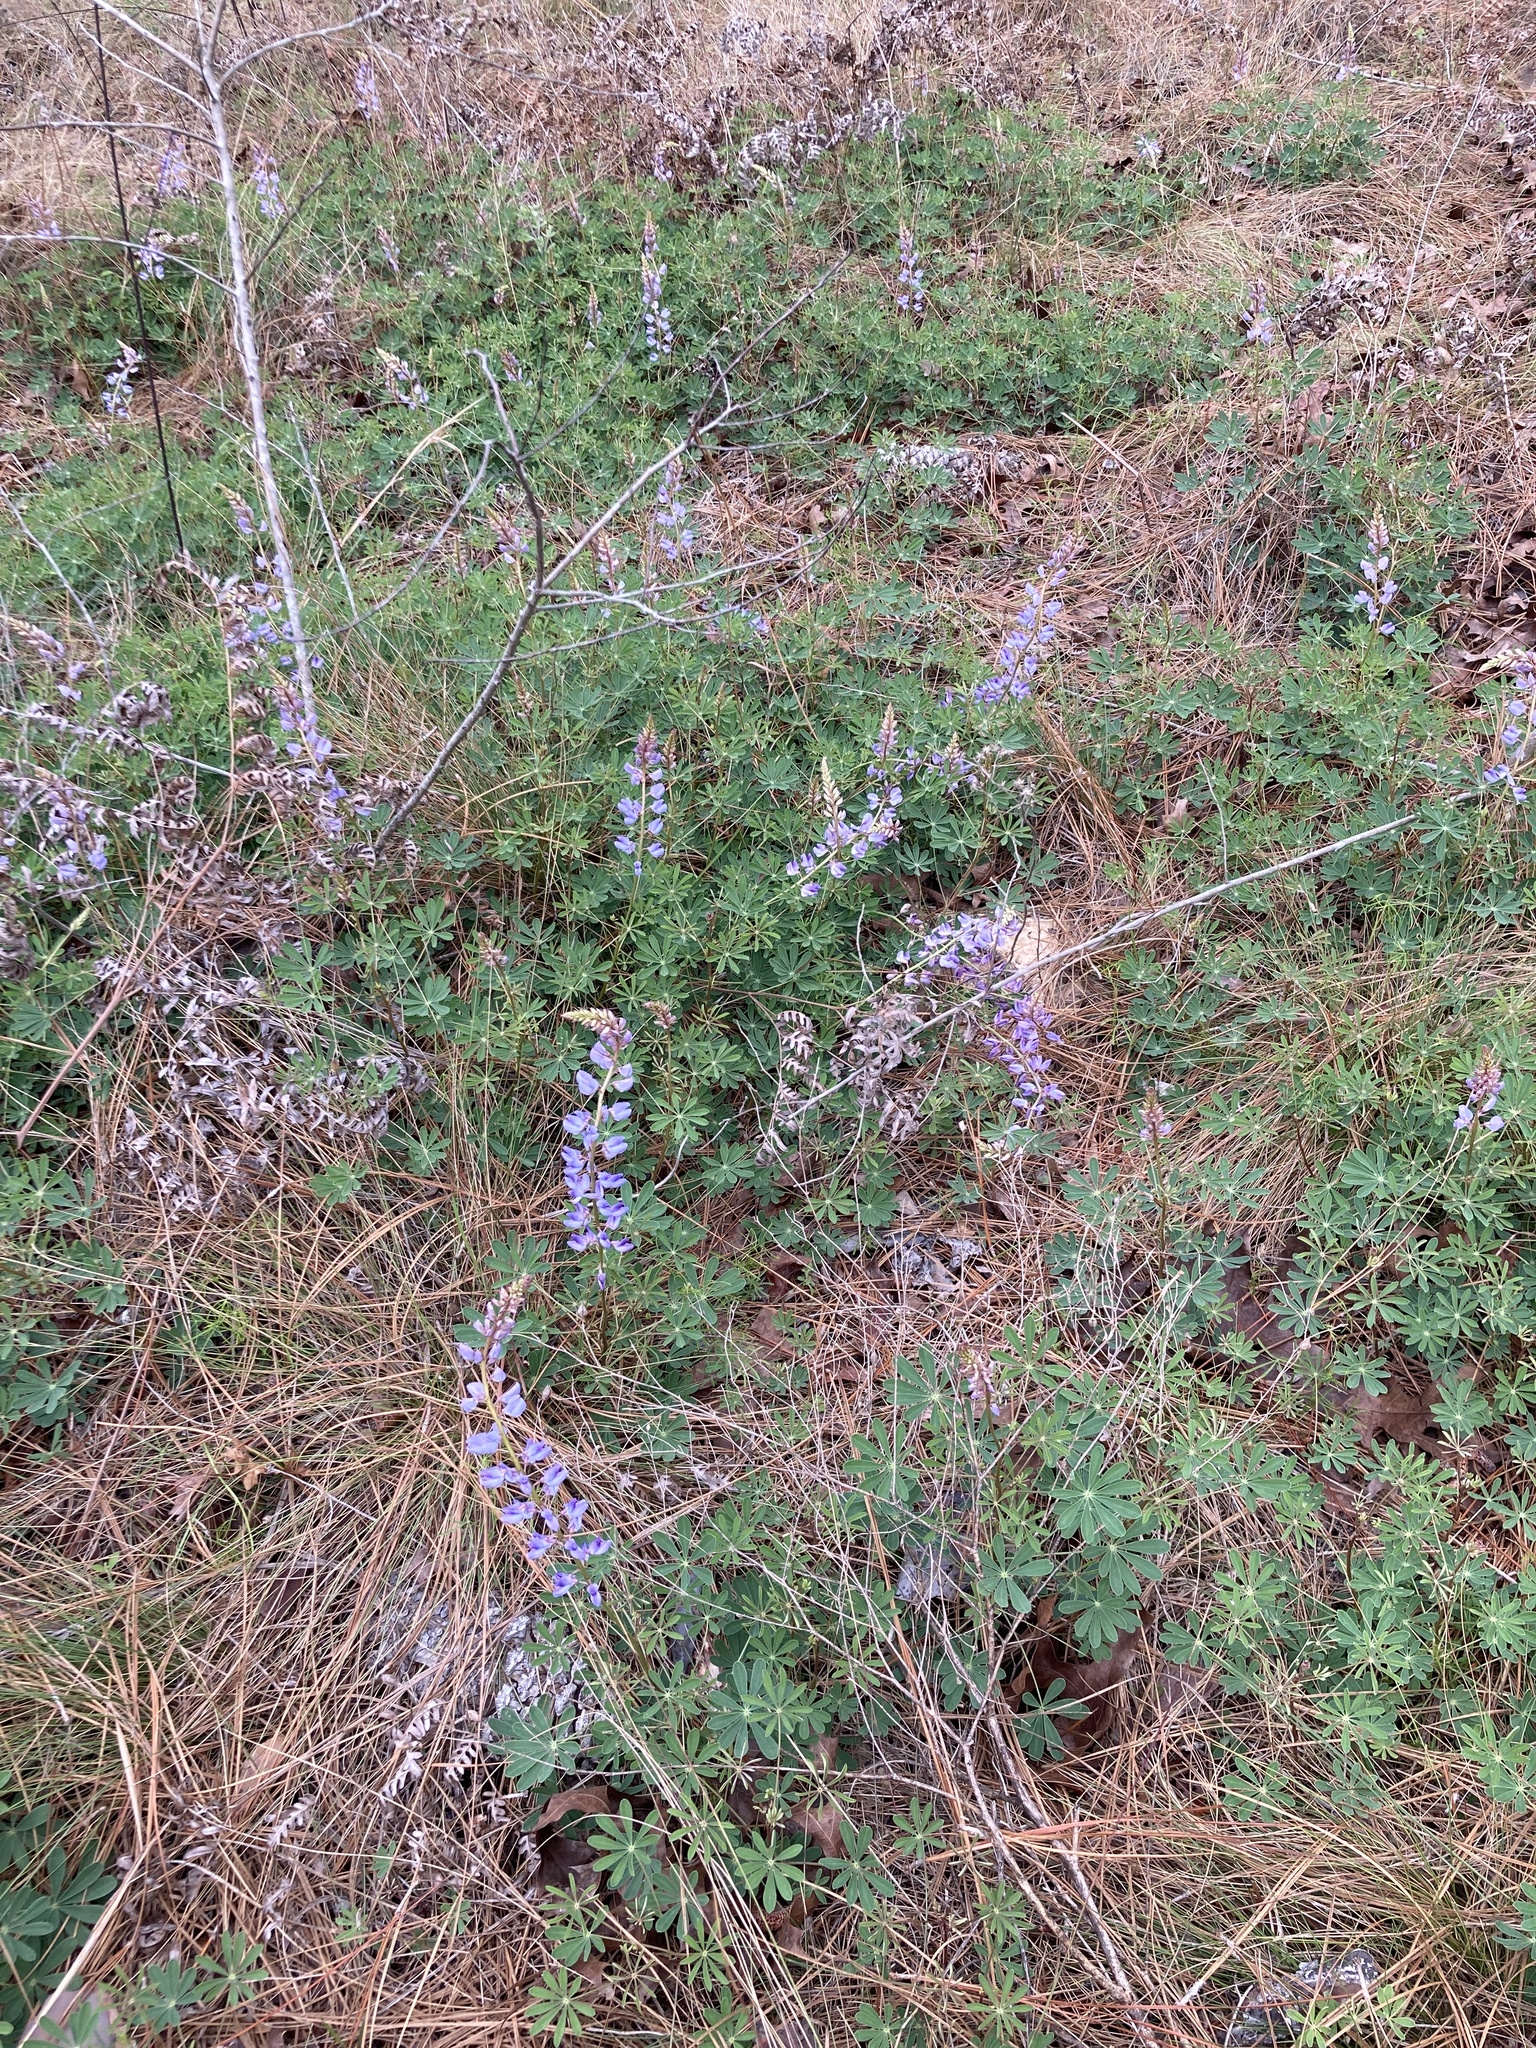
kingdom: Plantae
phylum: Tracheophyta
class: Magnoliopsida
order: Fabales
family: Fabaceae
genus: Lupinus
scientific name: Lupinus perennis
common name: Sundial lupine
